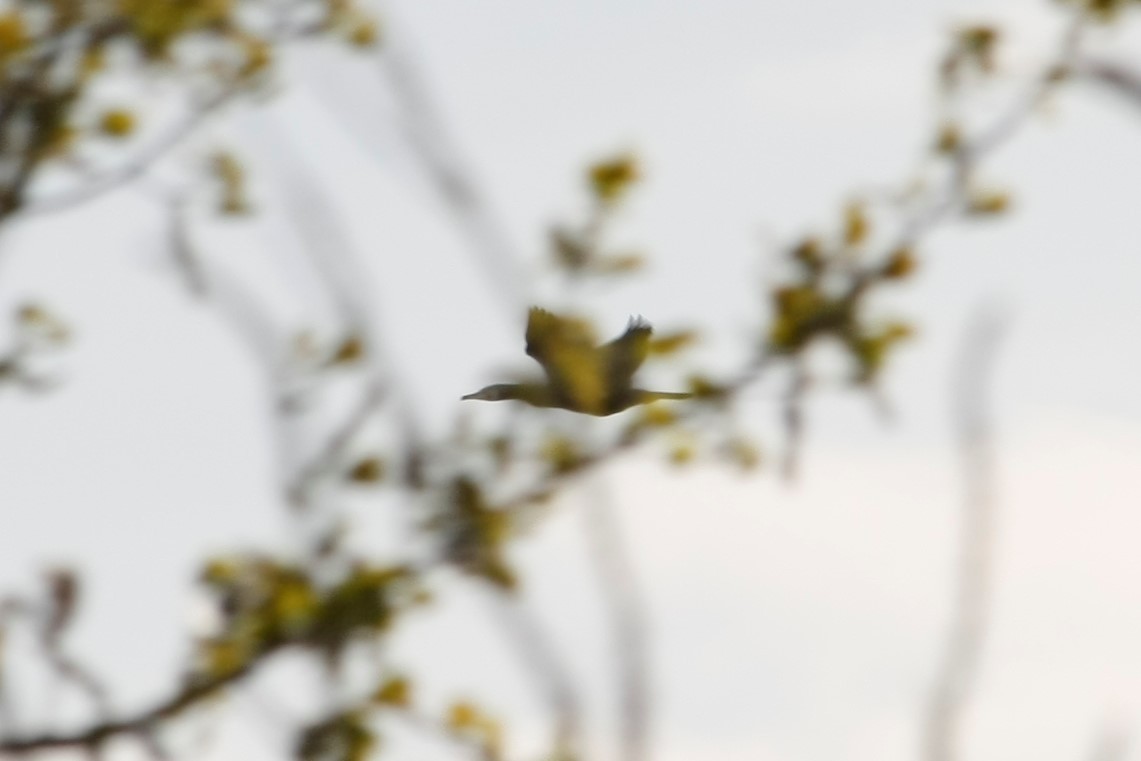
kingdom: Animalia
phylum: Chordata
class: Aves
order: Suliformes
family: Phalacrocoracidae
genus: Phalacrocorax
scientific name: Phalacrocorax carbo
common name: Great cormorant
